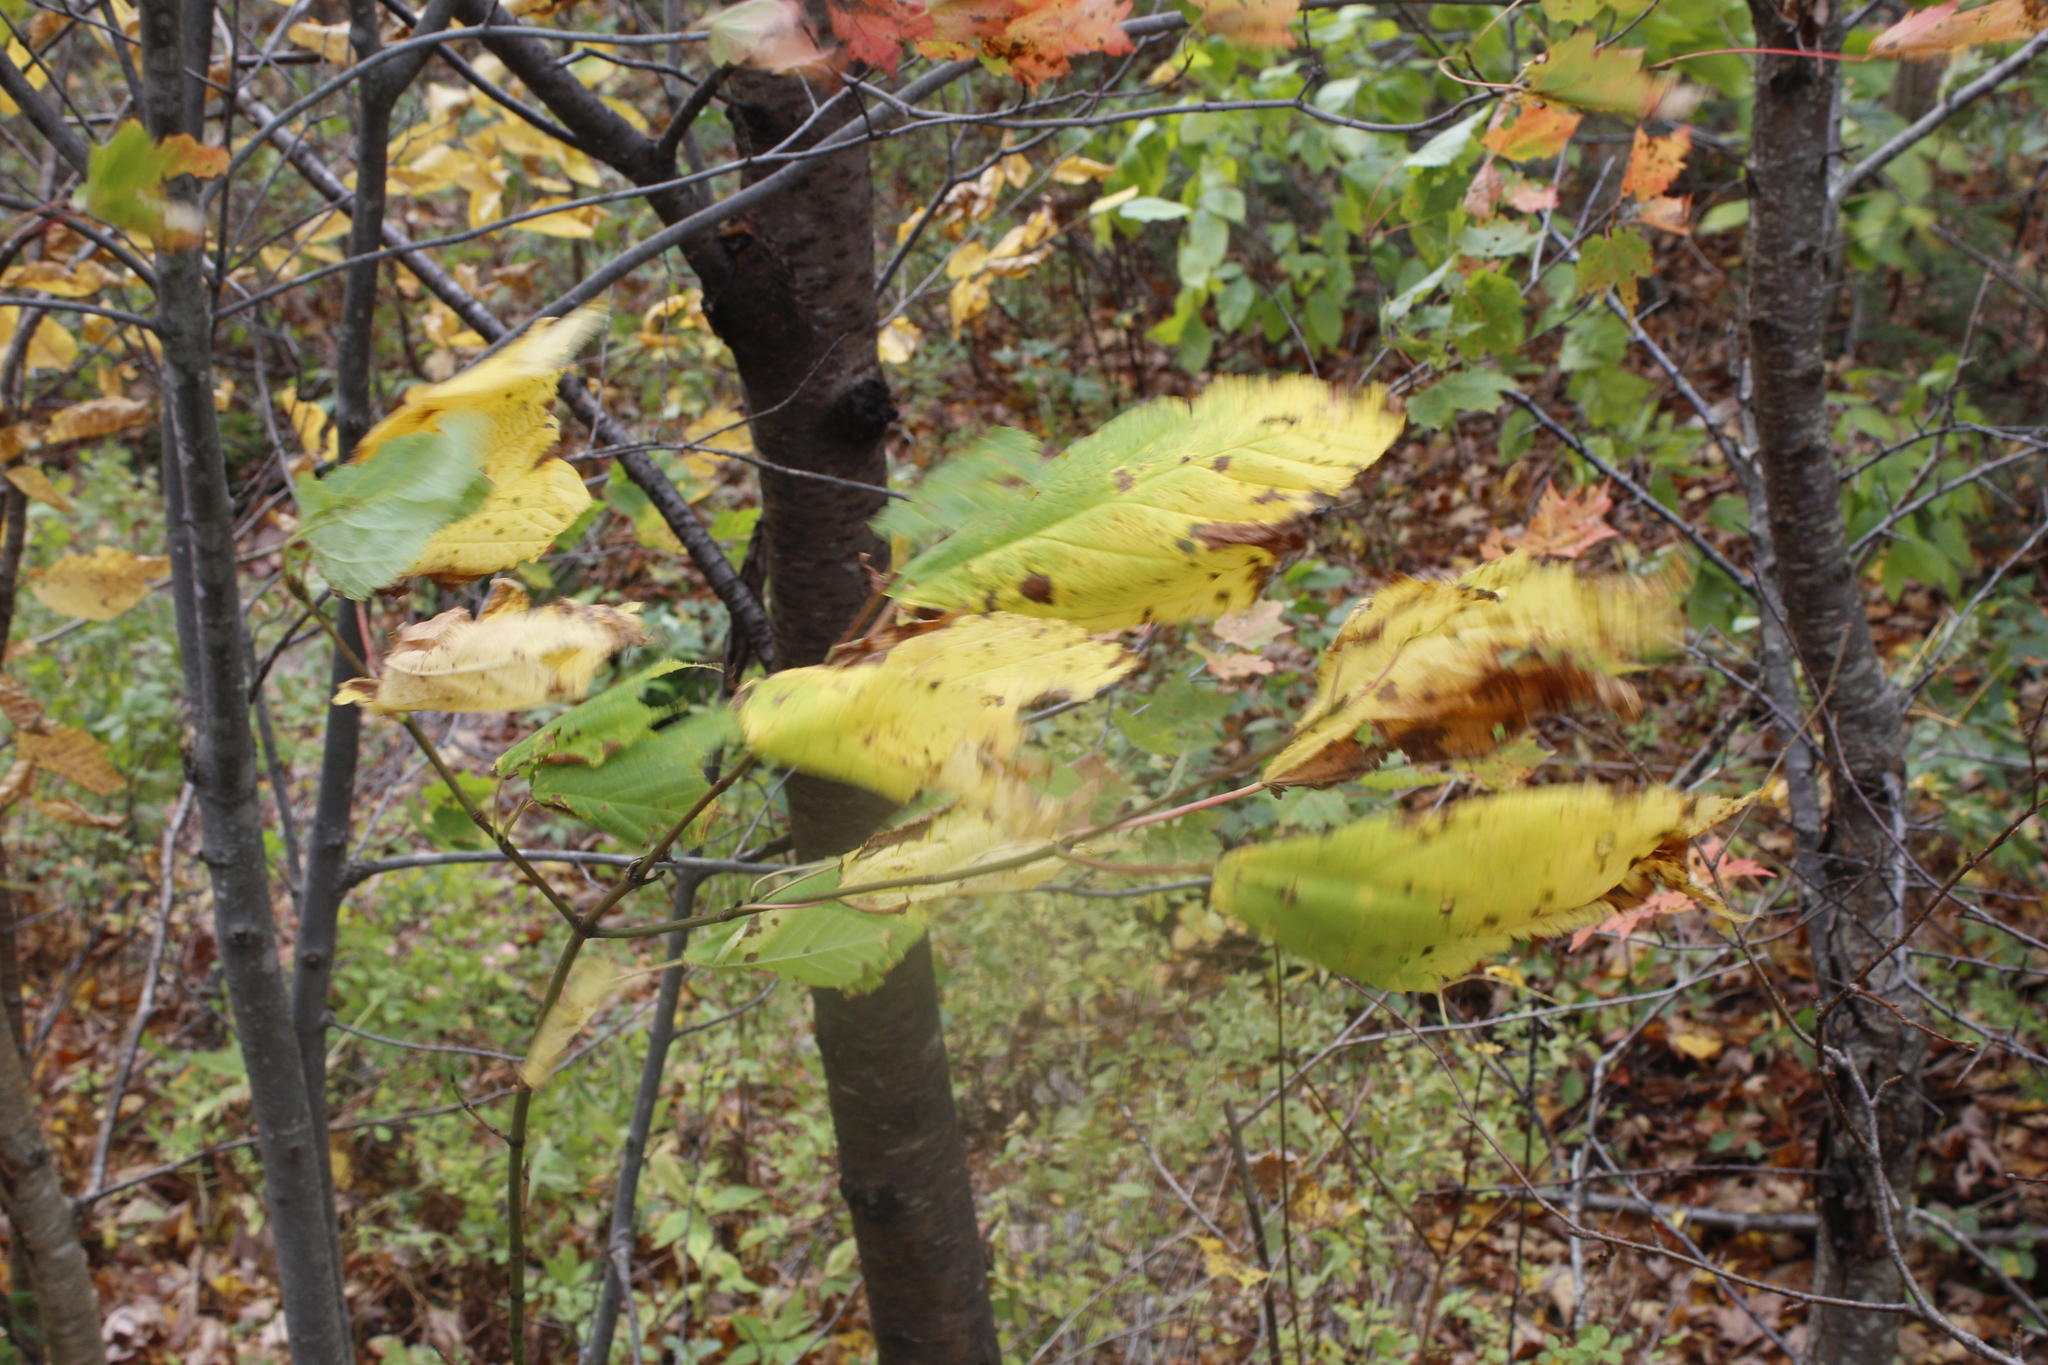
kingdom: Plantae
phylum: Tracheophyta
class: Magnoliopsida
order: Sapindales
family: Sapindaceae
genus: Acer
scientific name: Acer pensylvanicum
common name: Moosewood
